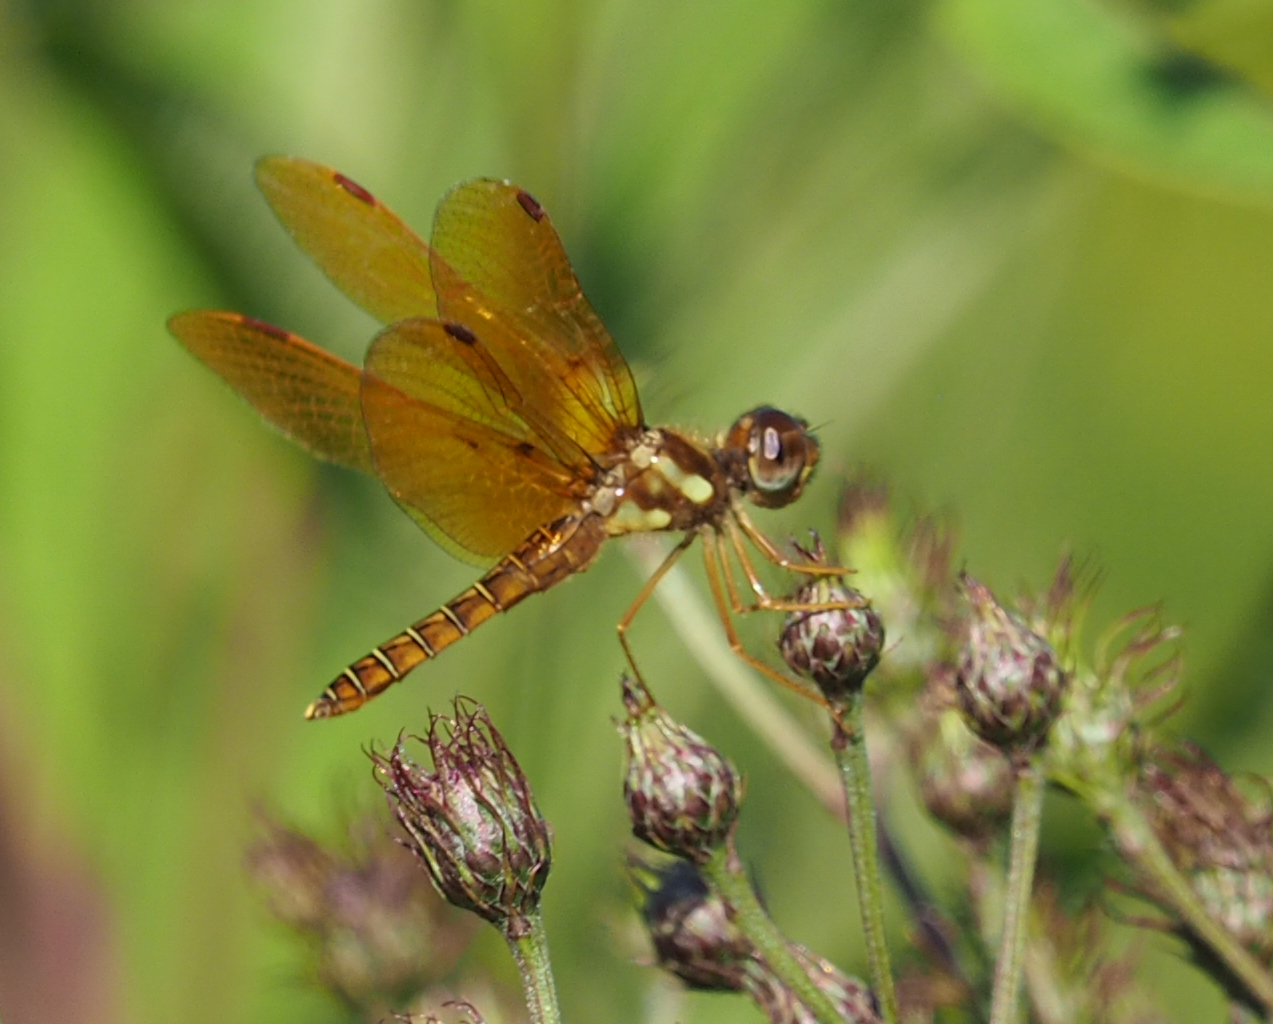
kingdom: Animalia
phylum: Arthropoda
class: Insecta
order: Odonata
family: Libellulidae
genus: Perithemis
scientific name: Perithemis tenera
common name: Eastern amberwing
